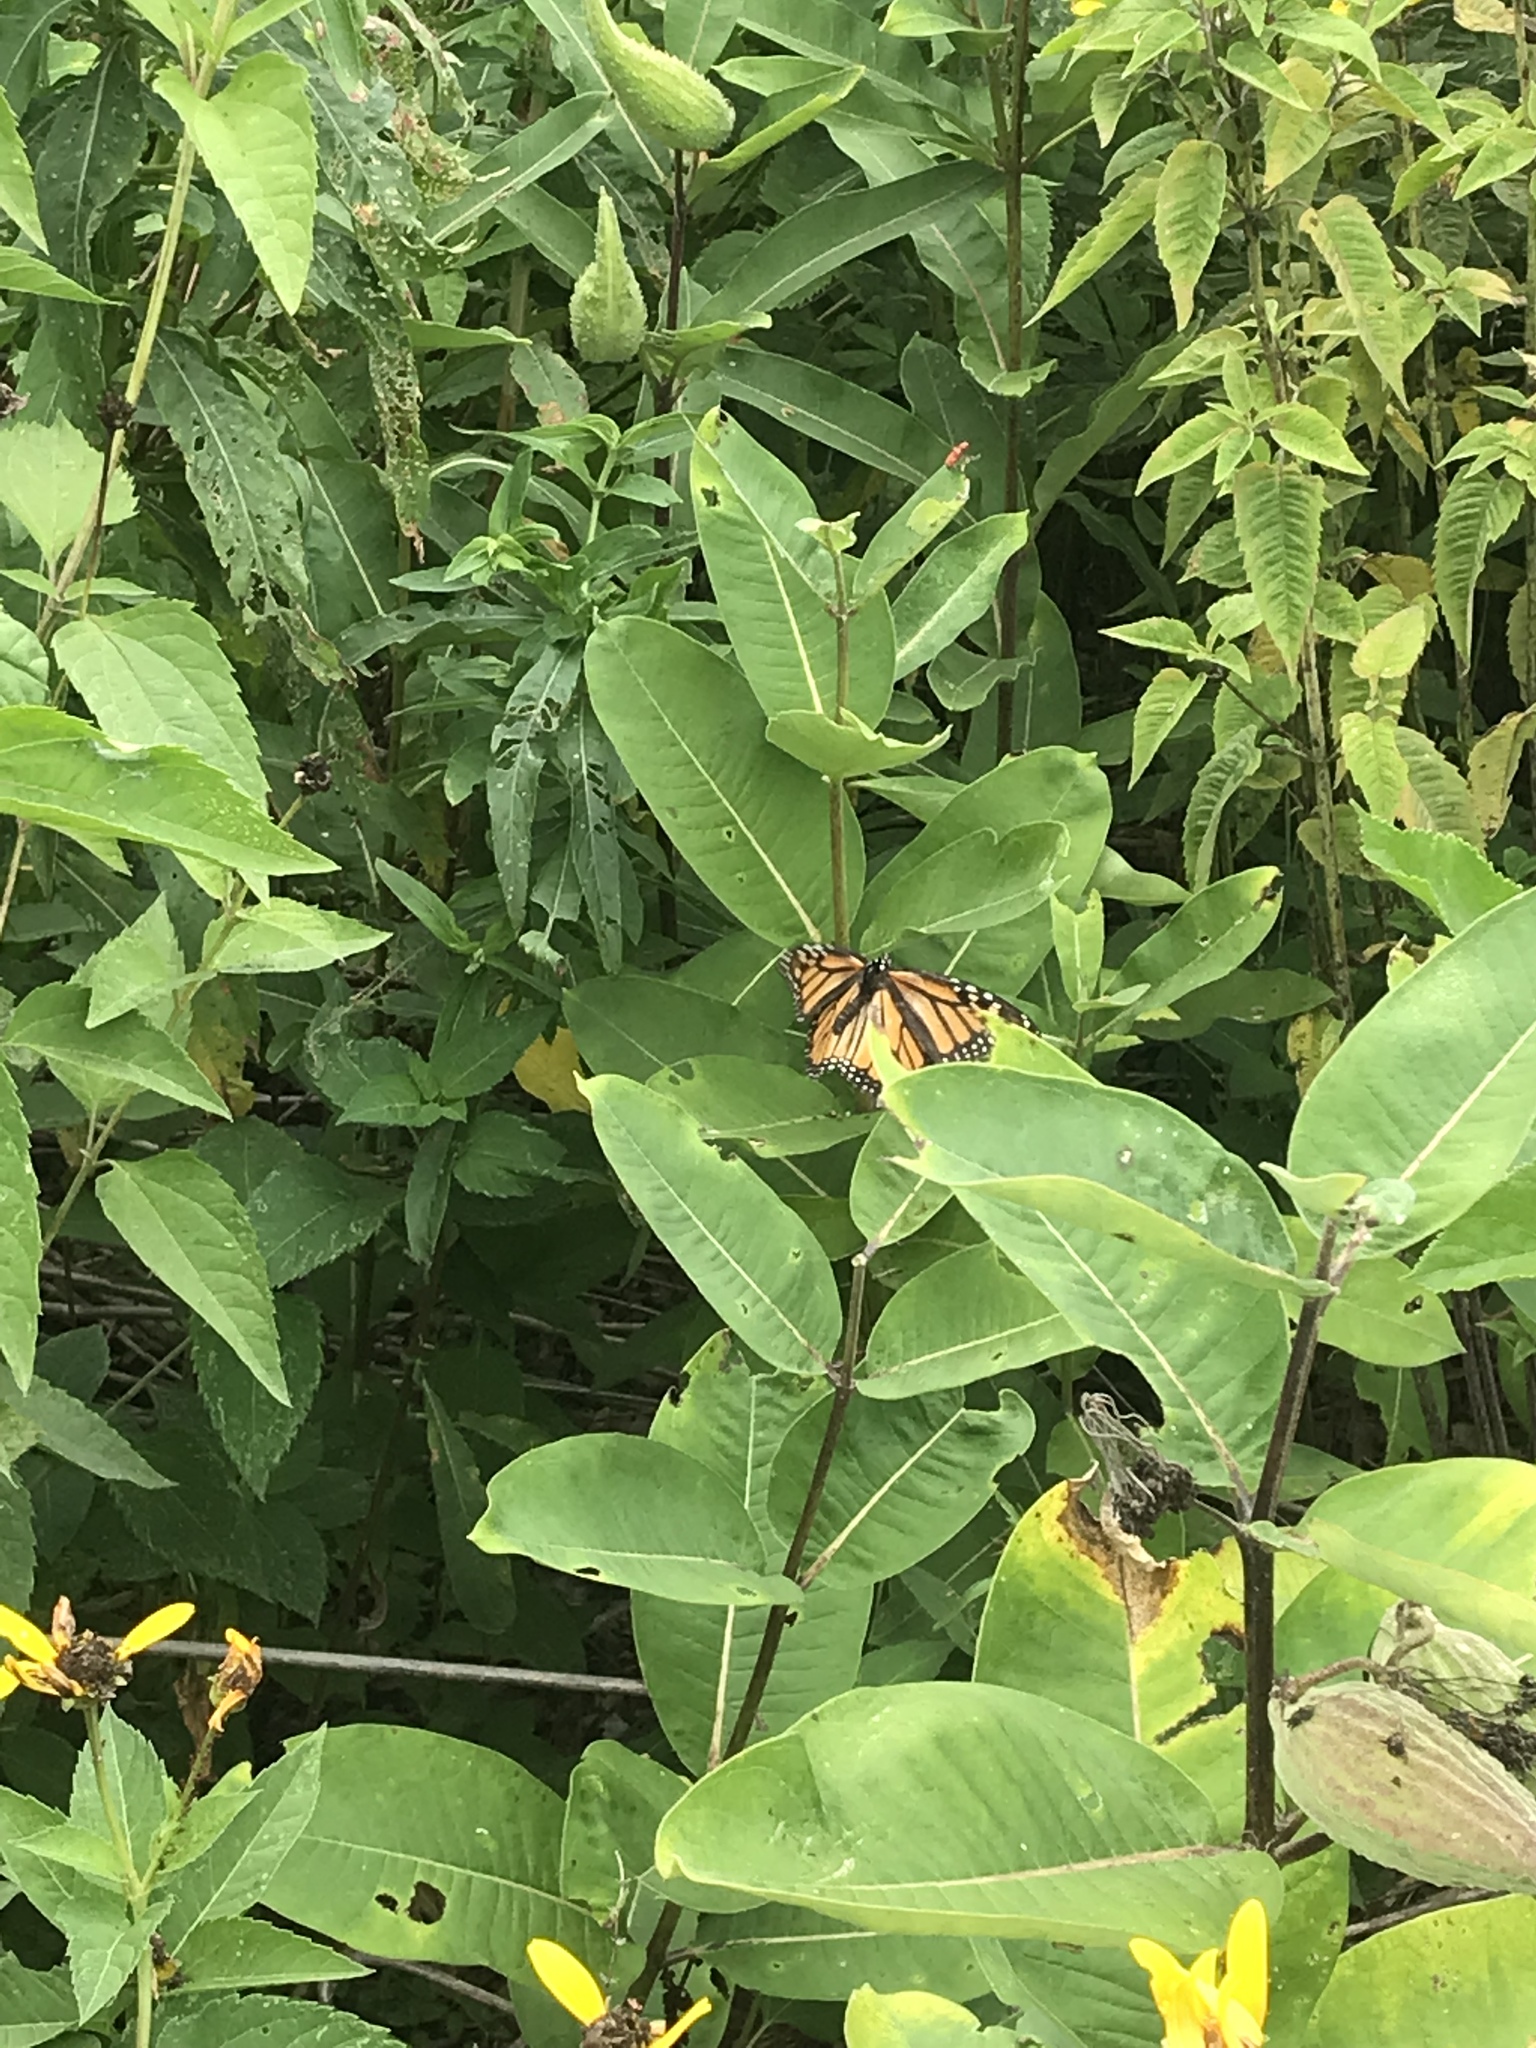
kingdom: Animalia
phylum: Arthropoda
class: Insecta
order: Lepidoptera
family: Nymphalidae
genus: Danaus
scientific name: Danaus plexippus
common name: Monarch
